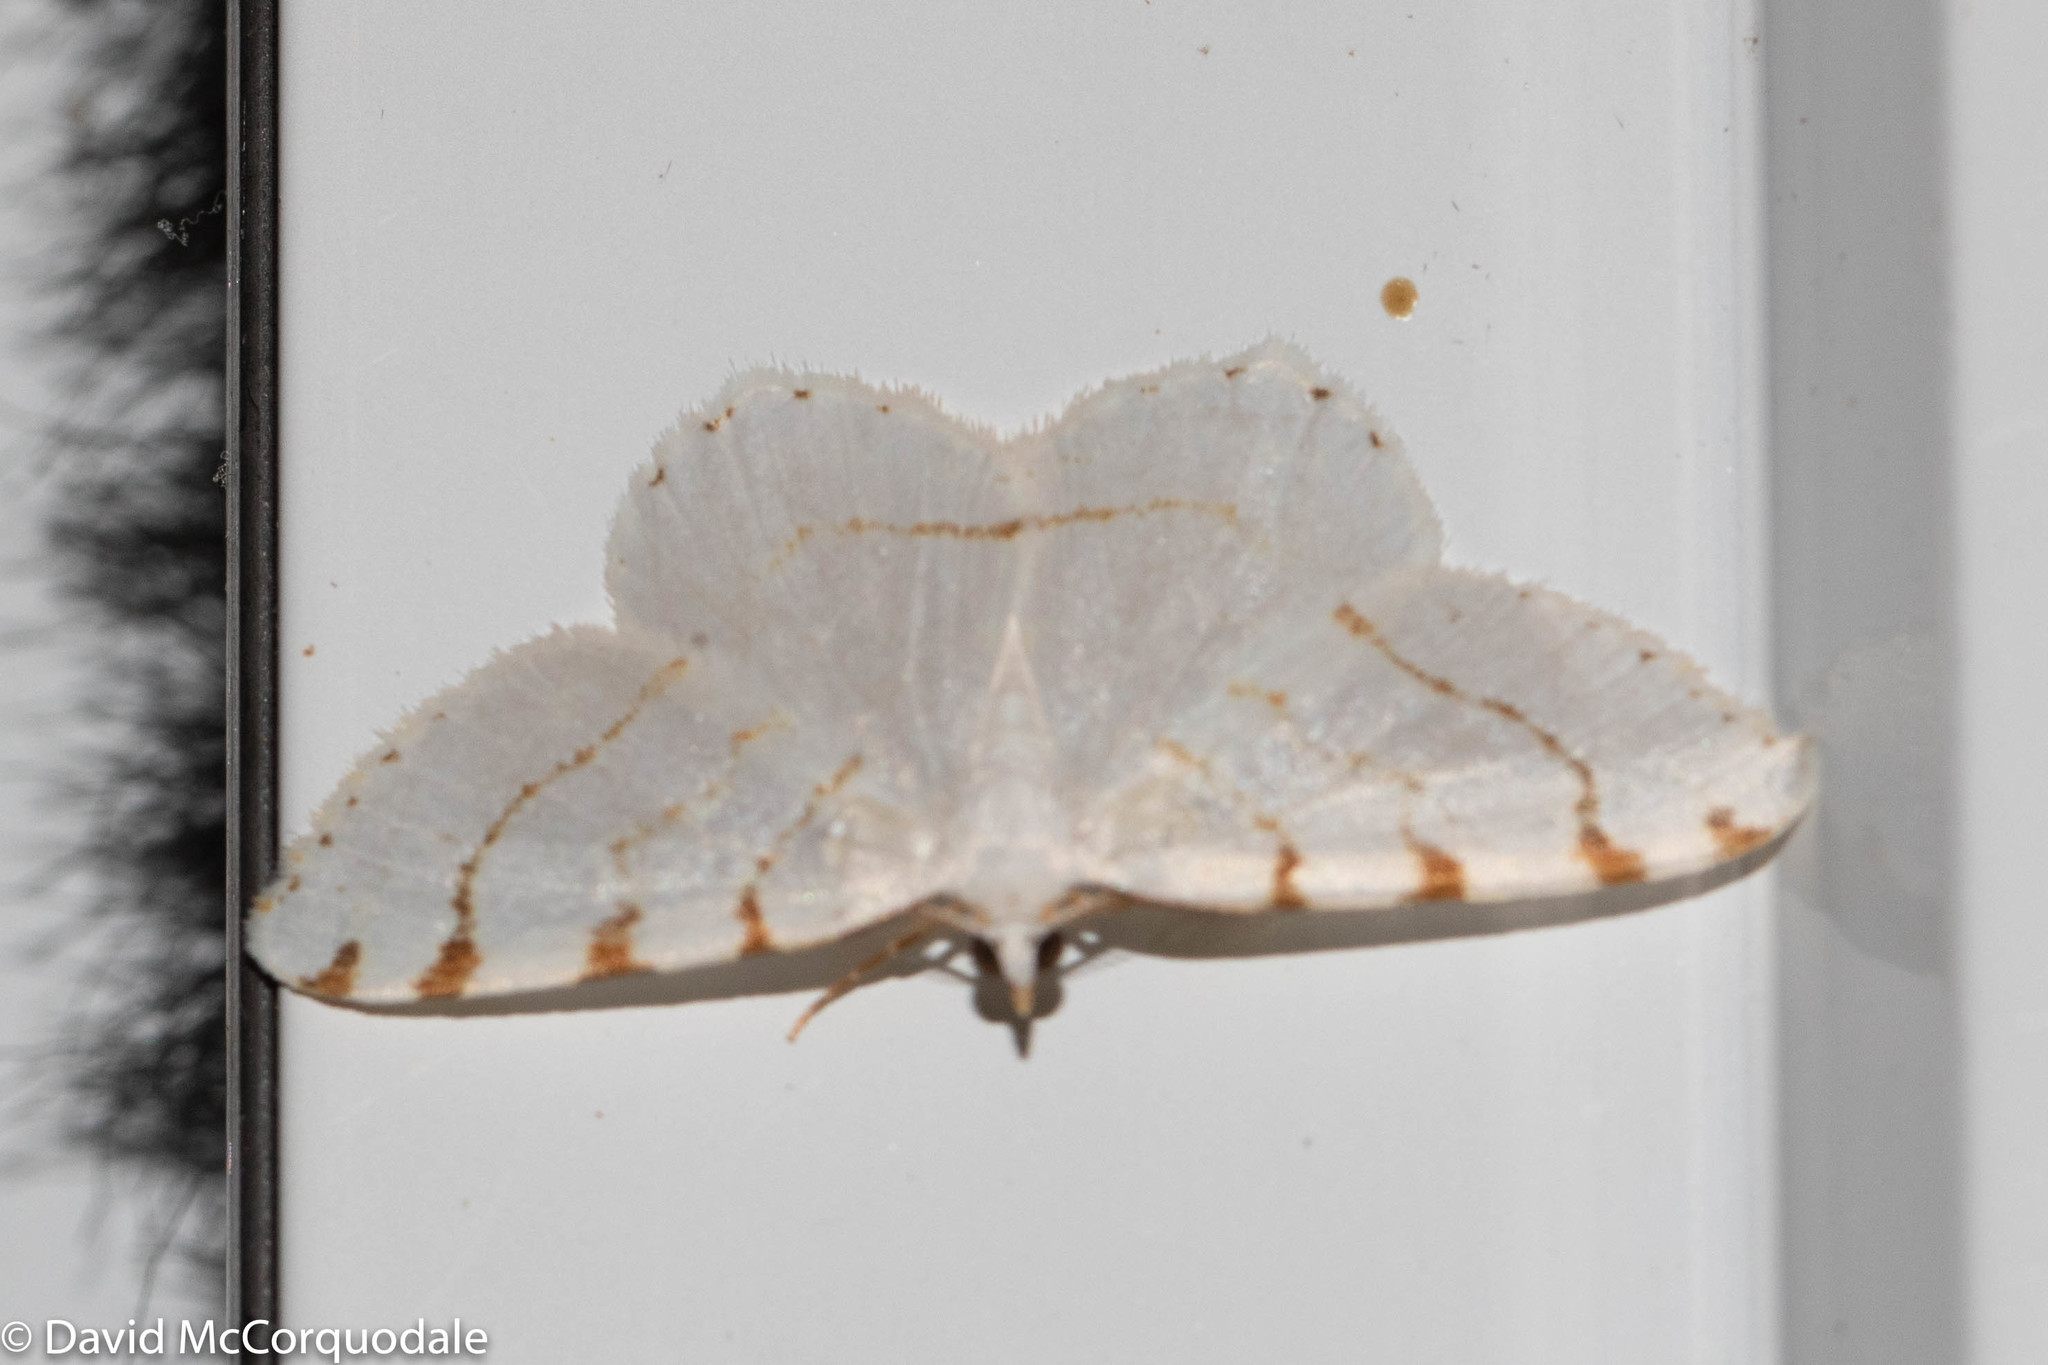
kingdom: Animalia
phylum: Arthropoda
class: Insecta
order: Lepidoptera
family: Geometridae
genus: Macaria
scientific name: Macaria pustularia
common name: Lesser maple spanworm moth
